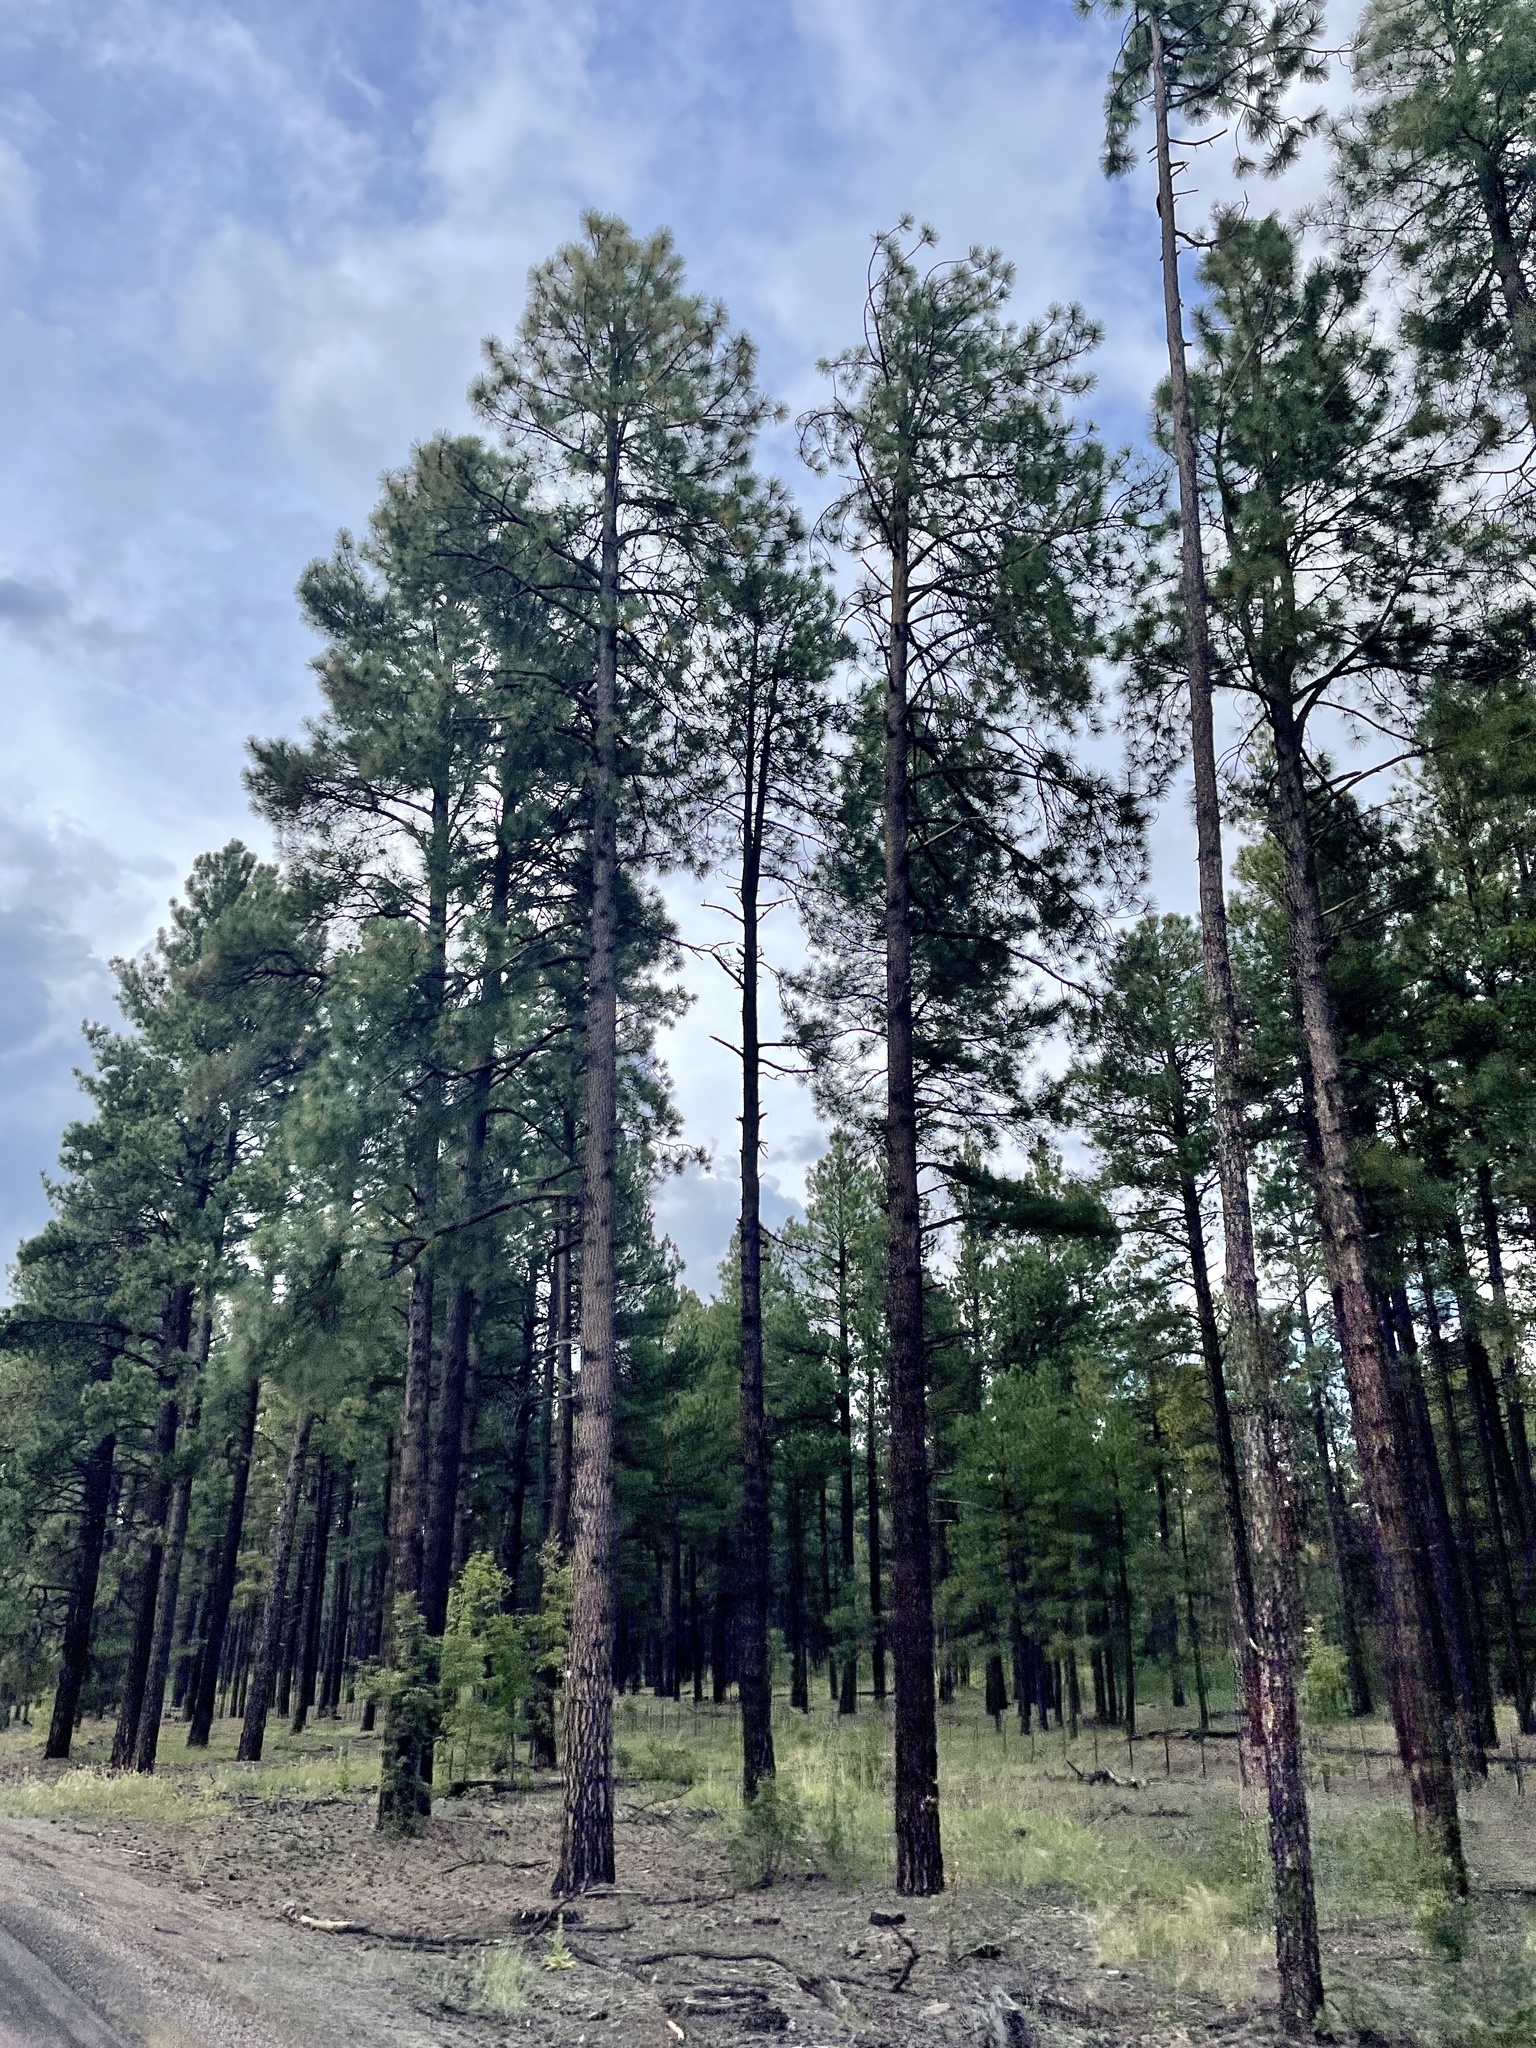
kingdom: Plantae
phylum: Tracheophyta
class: Pinopsida
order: Pinales
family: Pinaceae
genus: Pinus
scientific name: Pinus ponderosa
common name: Western yellow-pine
